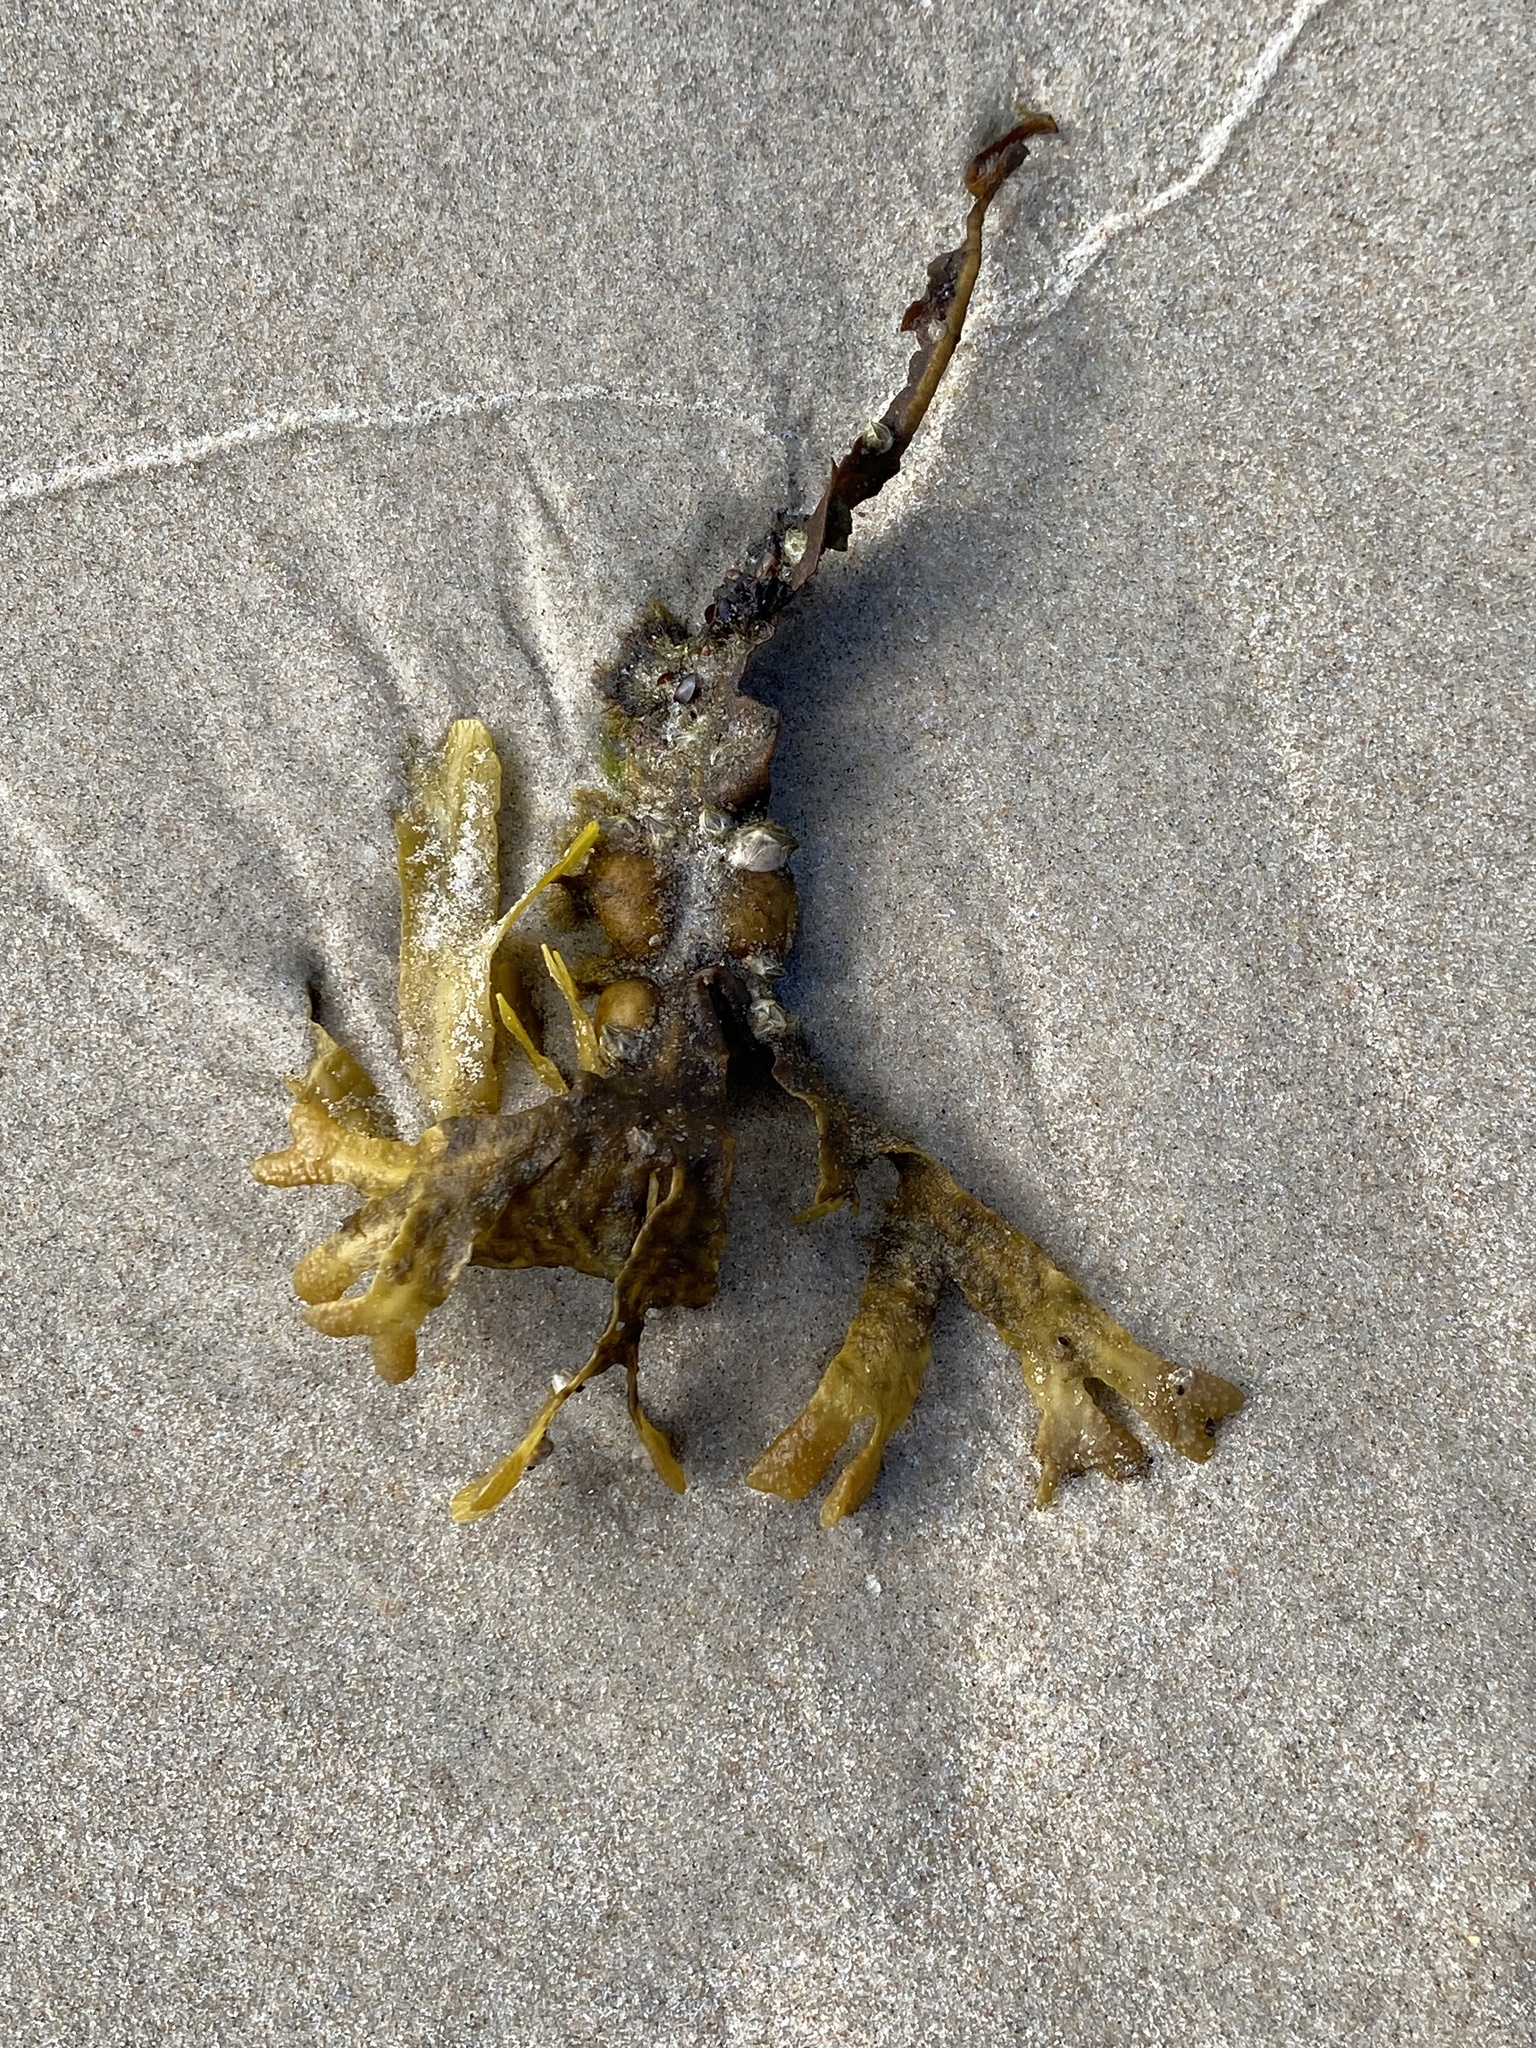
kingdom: Chromista
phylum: Ochrophyta
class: Phaeophyceae
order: Fucales
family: Fucaceae
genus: Fucus
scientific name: Fucus vesiculosus
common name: Bladder wrack
